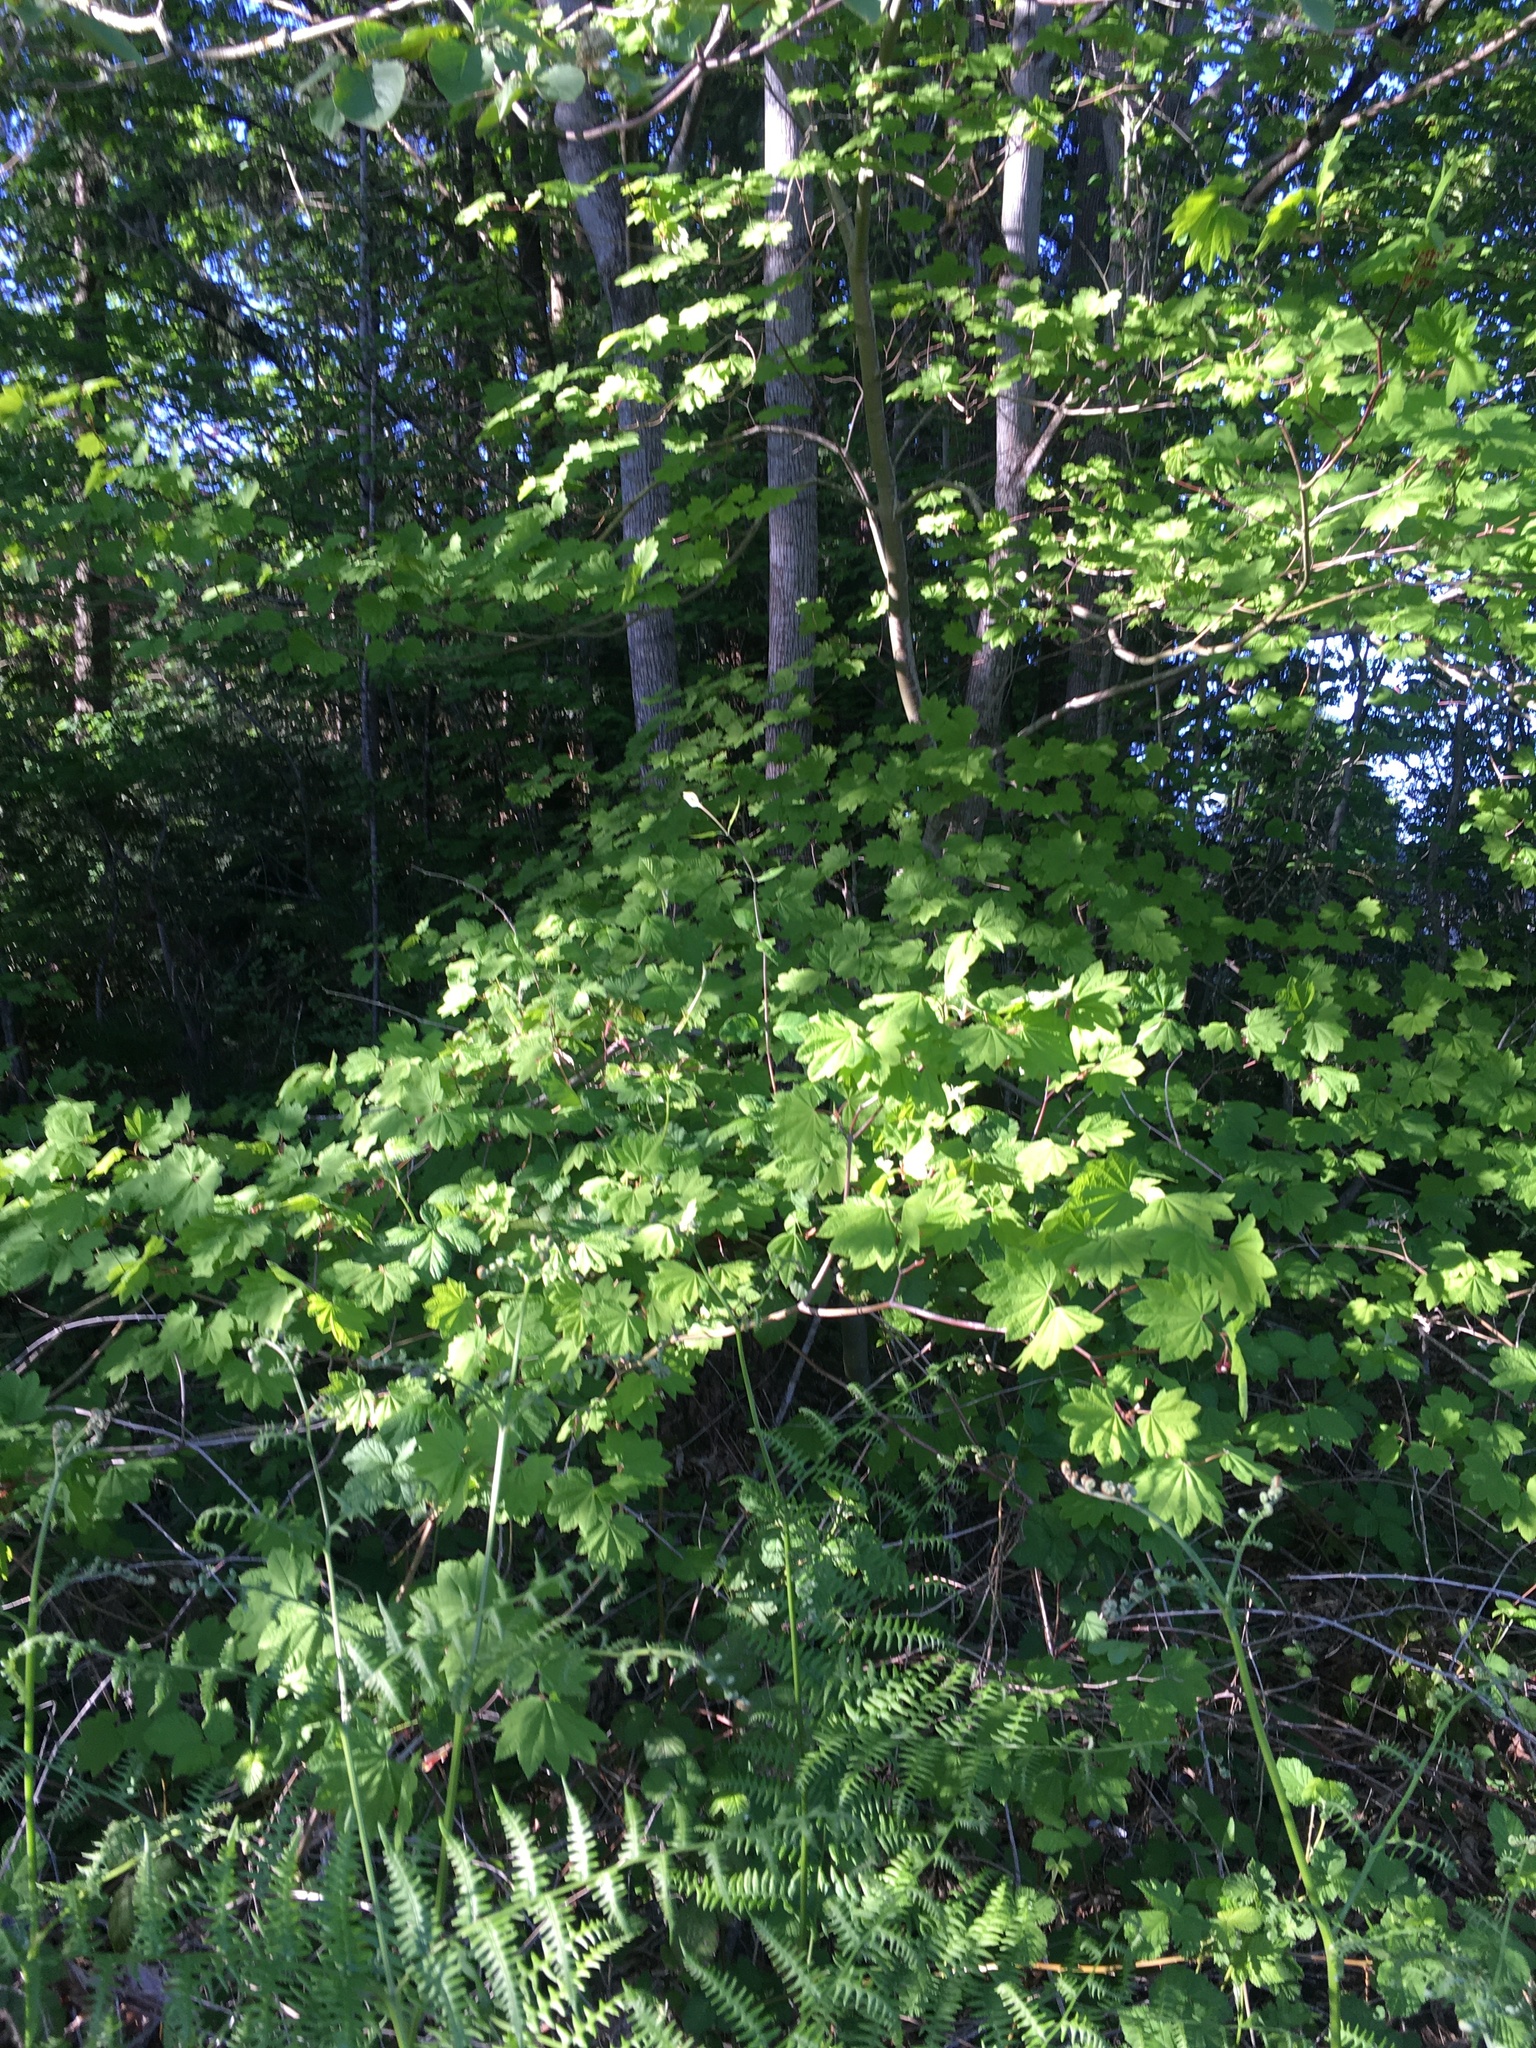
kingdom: Plantae
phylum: Tracheophyta
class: Magnoliopsida
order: Sapindales
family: Sapindaceae
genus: Acer
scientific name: Acer circinatum
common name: Vine maple
